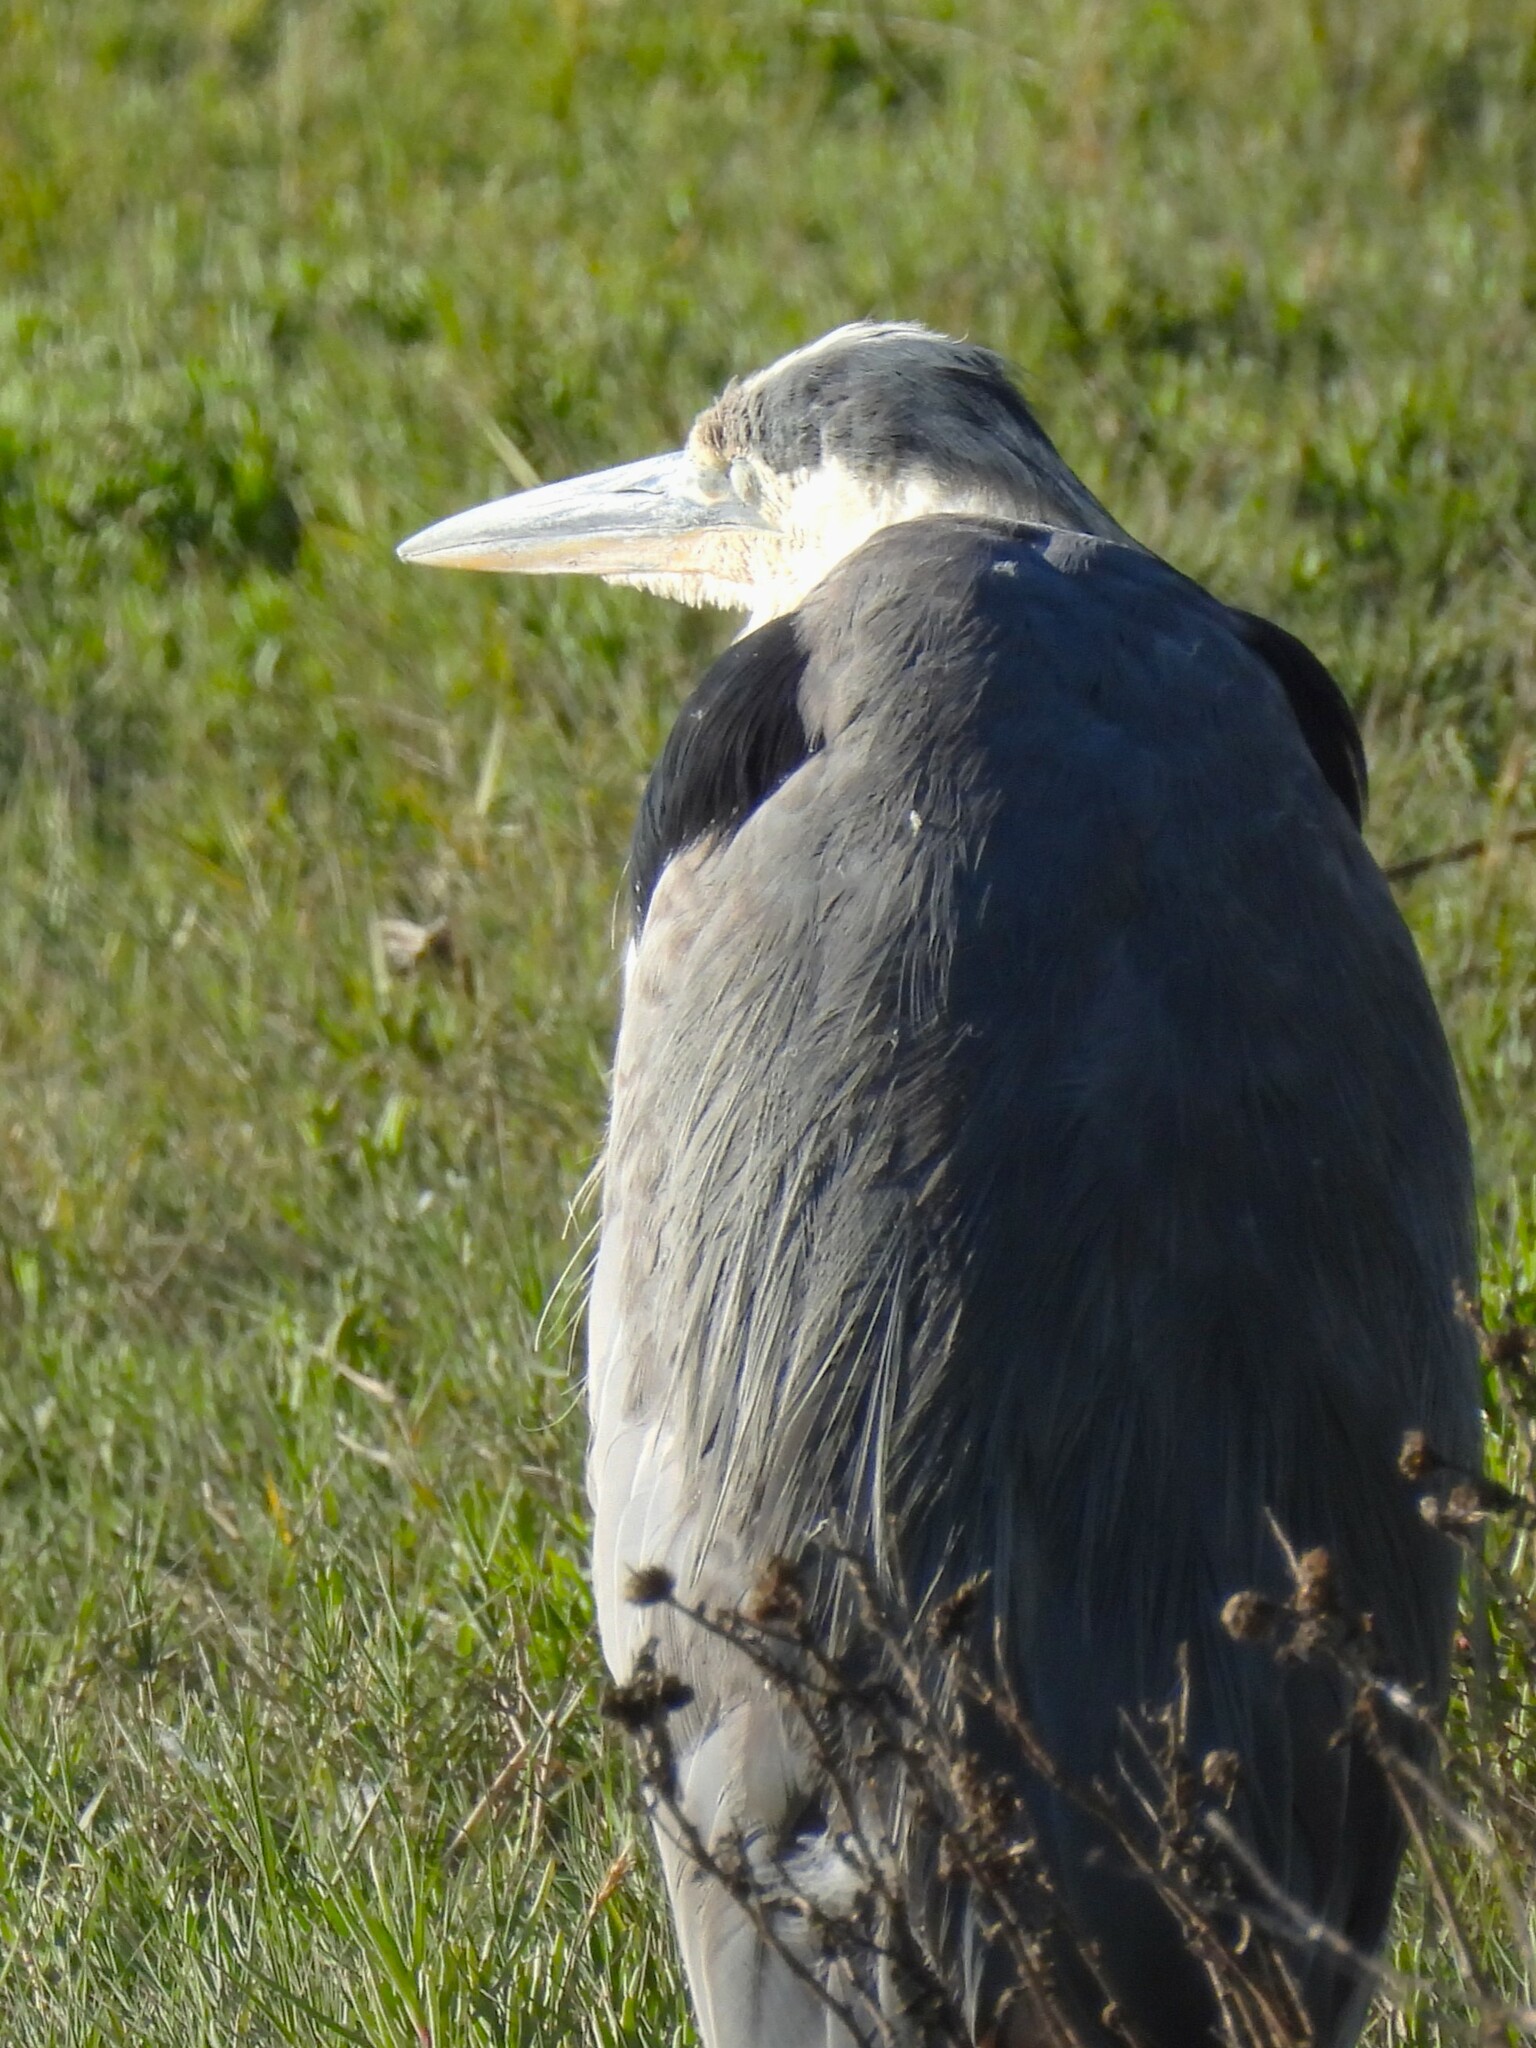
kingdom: Animalia
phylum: Chordata
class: Aves
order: Pelecaniformes
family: Ardeidae
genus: Ardea
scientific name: Ardea herodias
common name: Great blue heron
